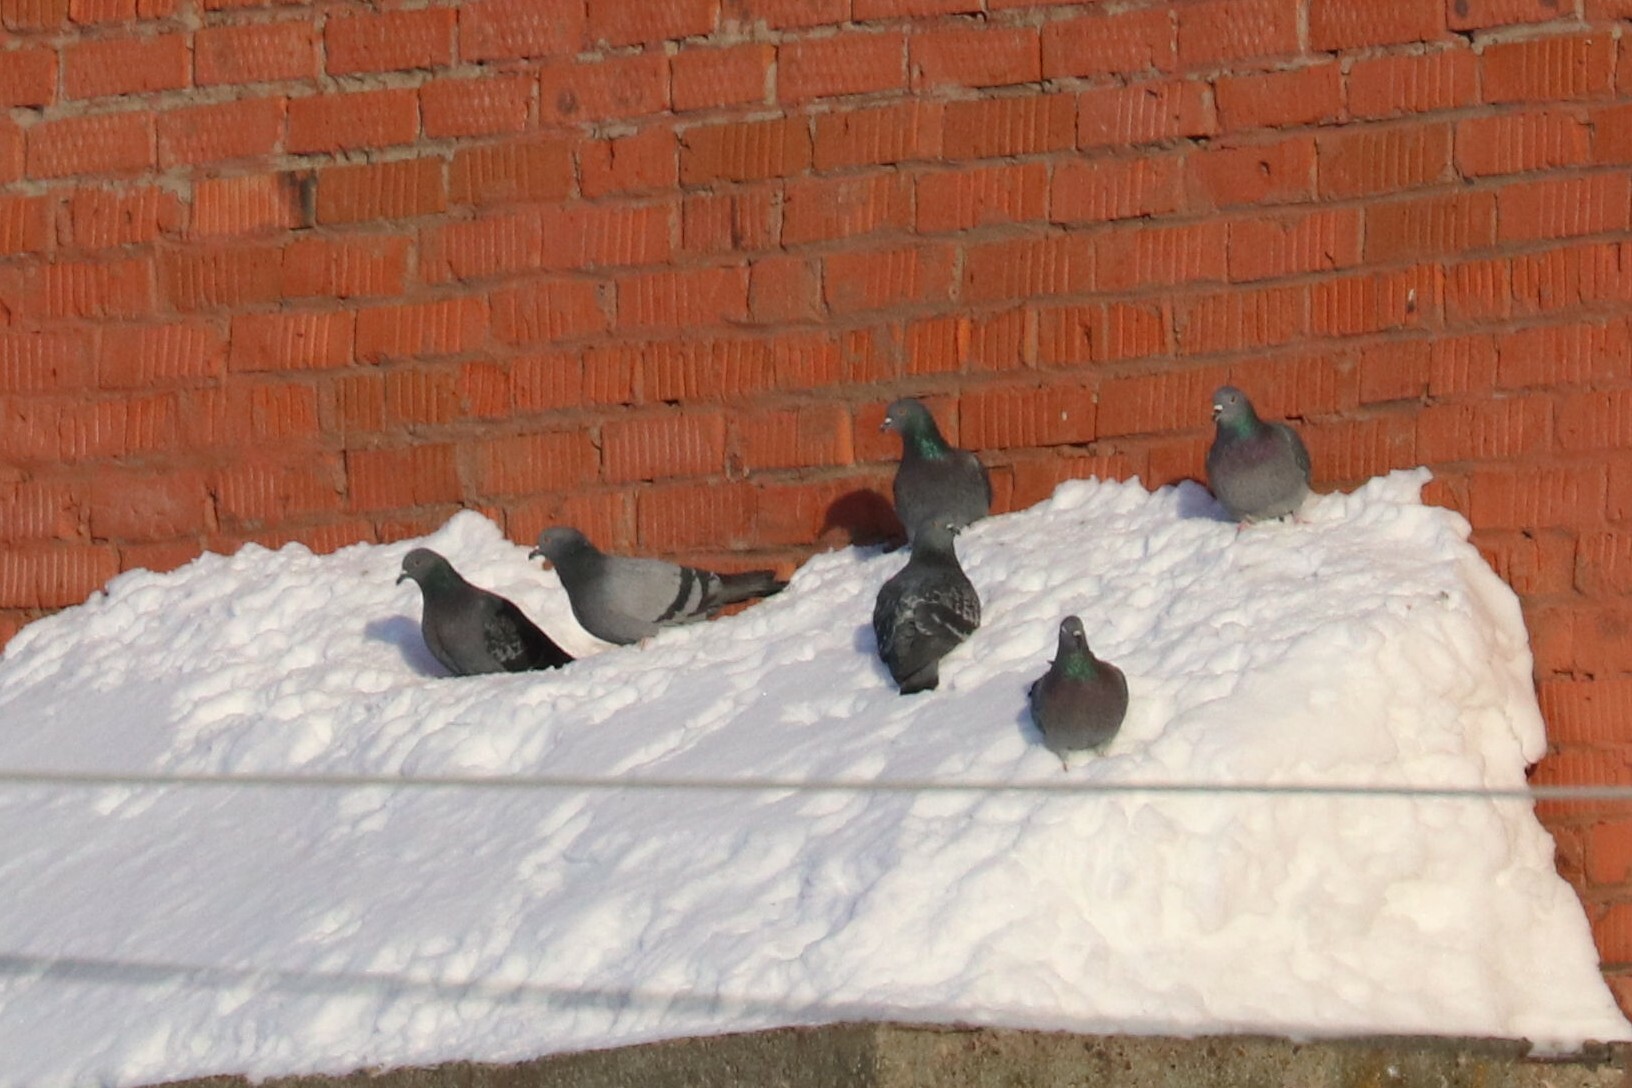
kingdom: Animalia
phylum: Chordata
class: Aves
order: Columbiformes
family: Columbidae
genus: Columba
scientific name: Columba livia
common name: Rock pigeon
